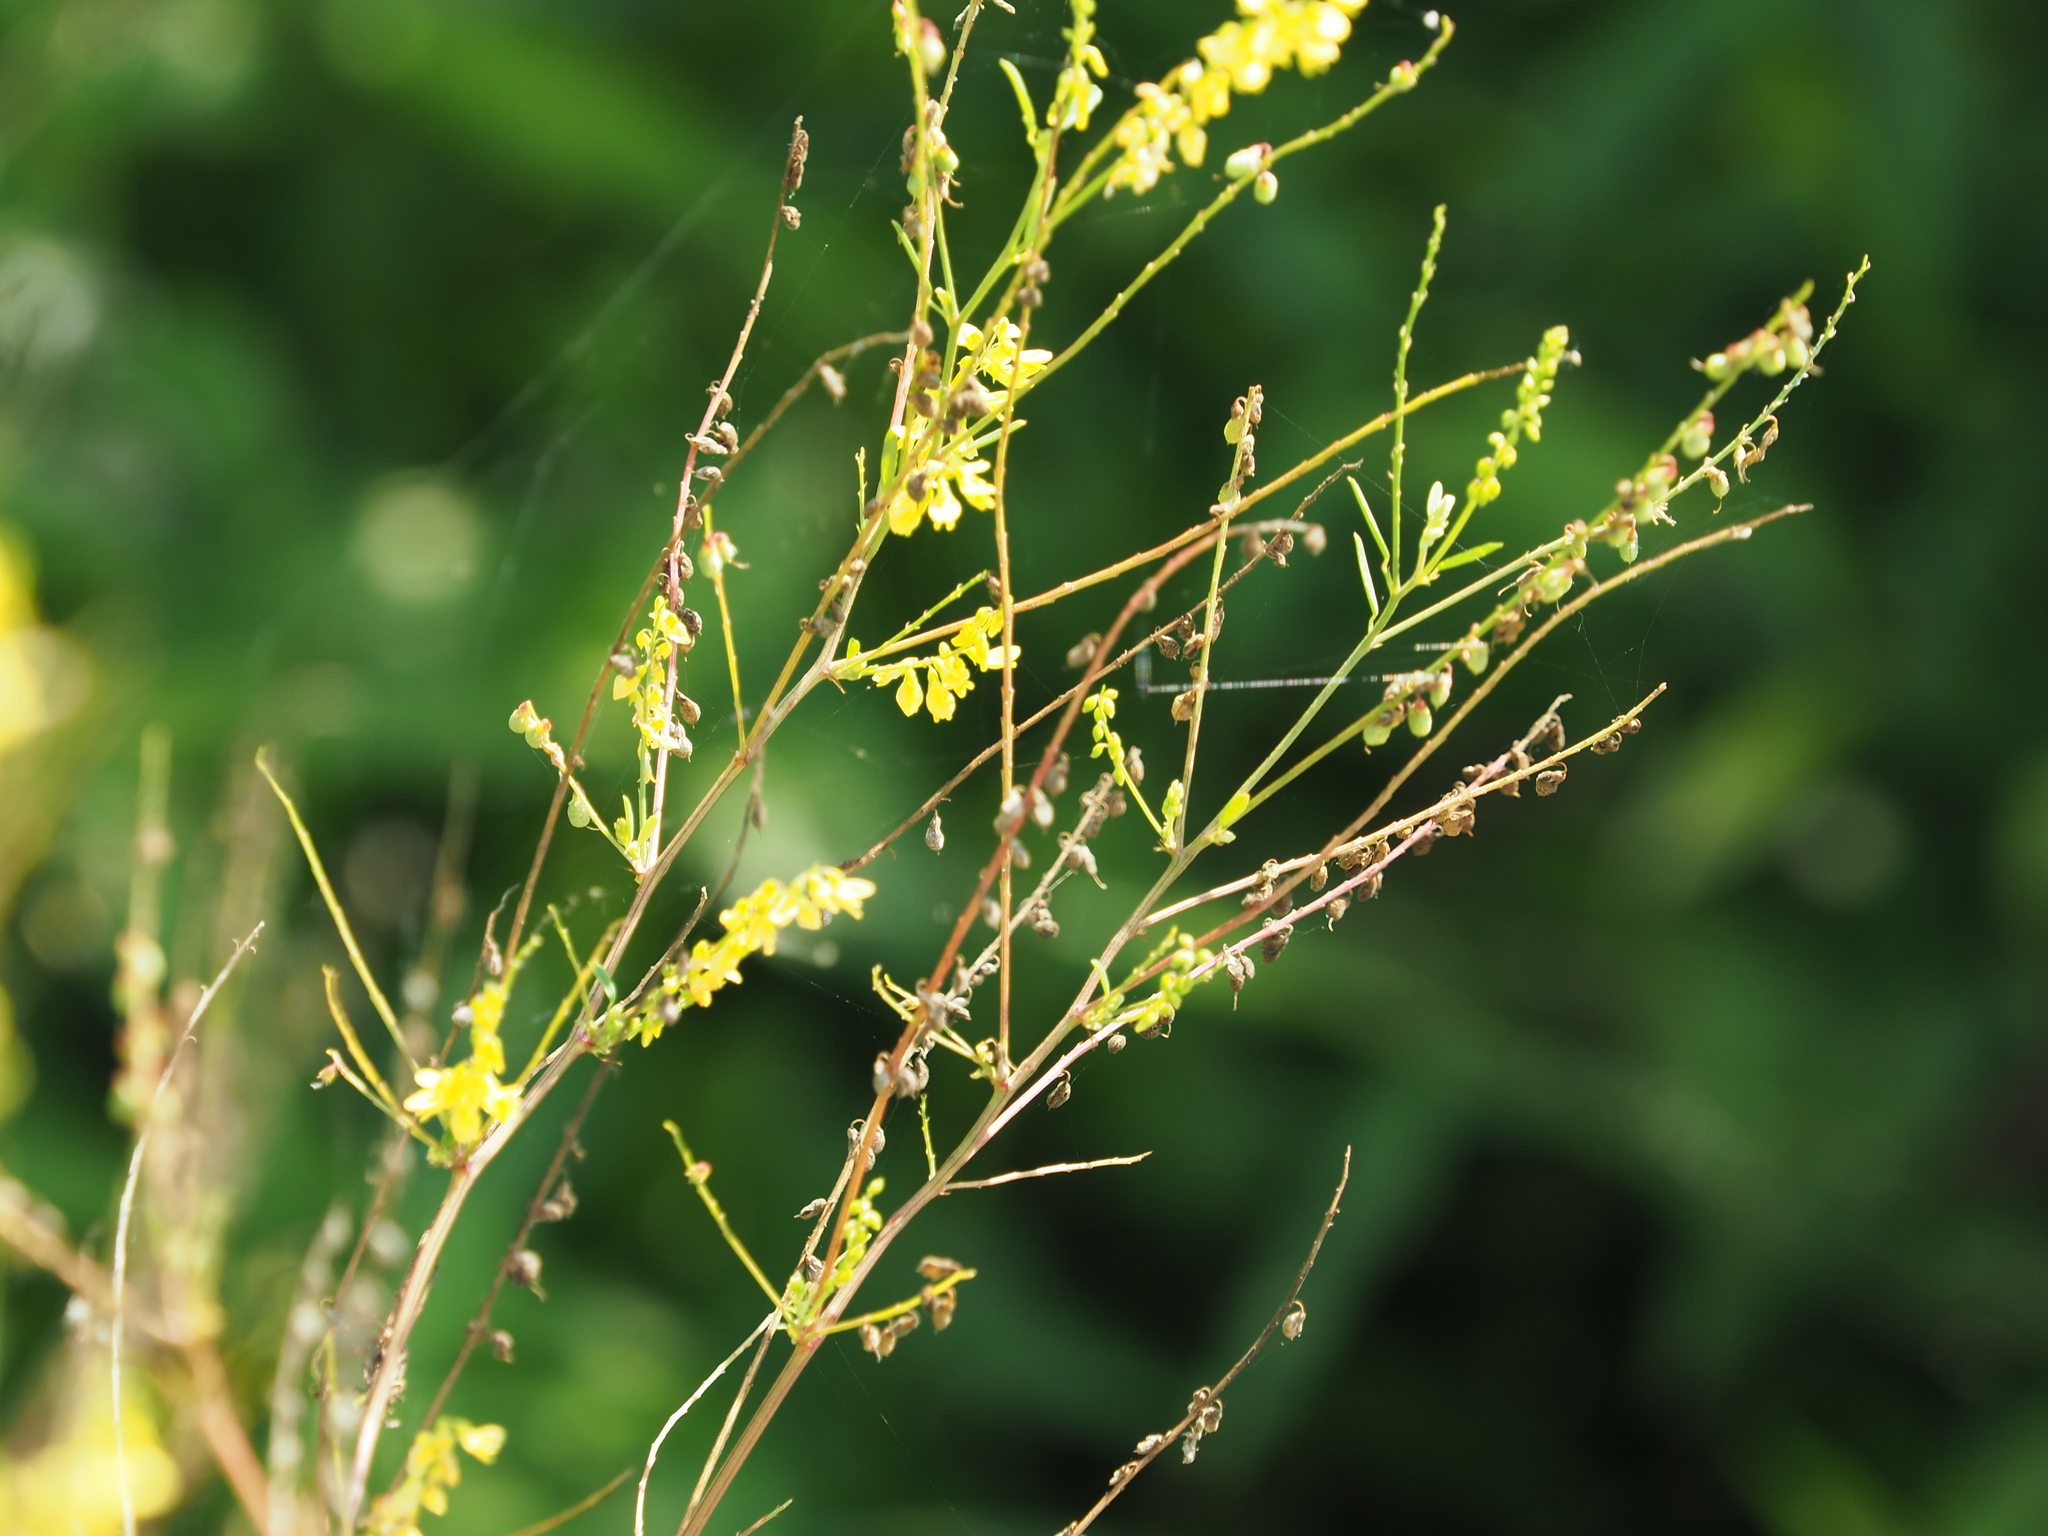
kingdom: Plantae
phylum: Tracheophyta
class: Magnoliopsida
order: Fabales
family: Fabaceae
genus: Melilotus
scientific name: Melilotus officinalis
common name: Sweetclover
